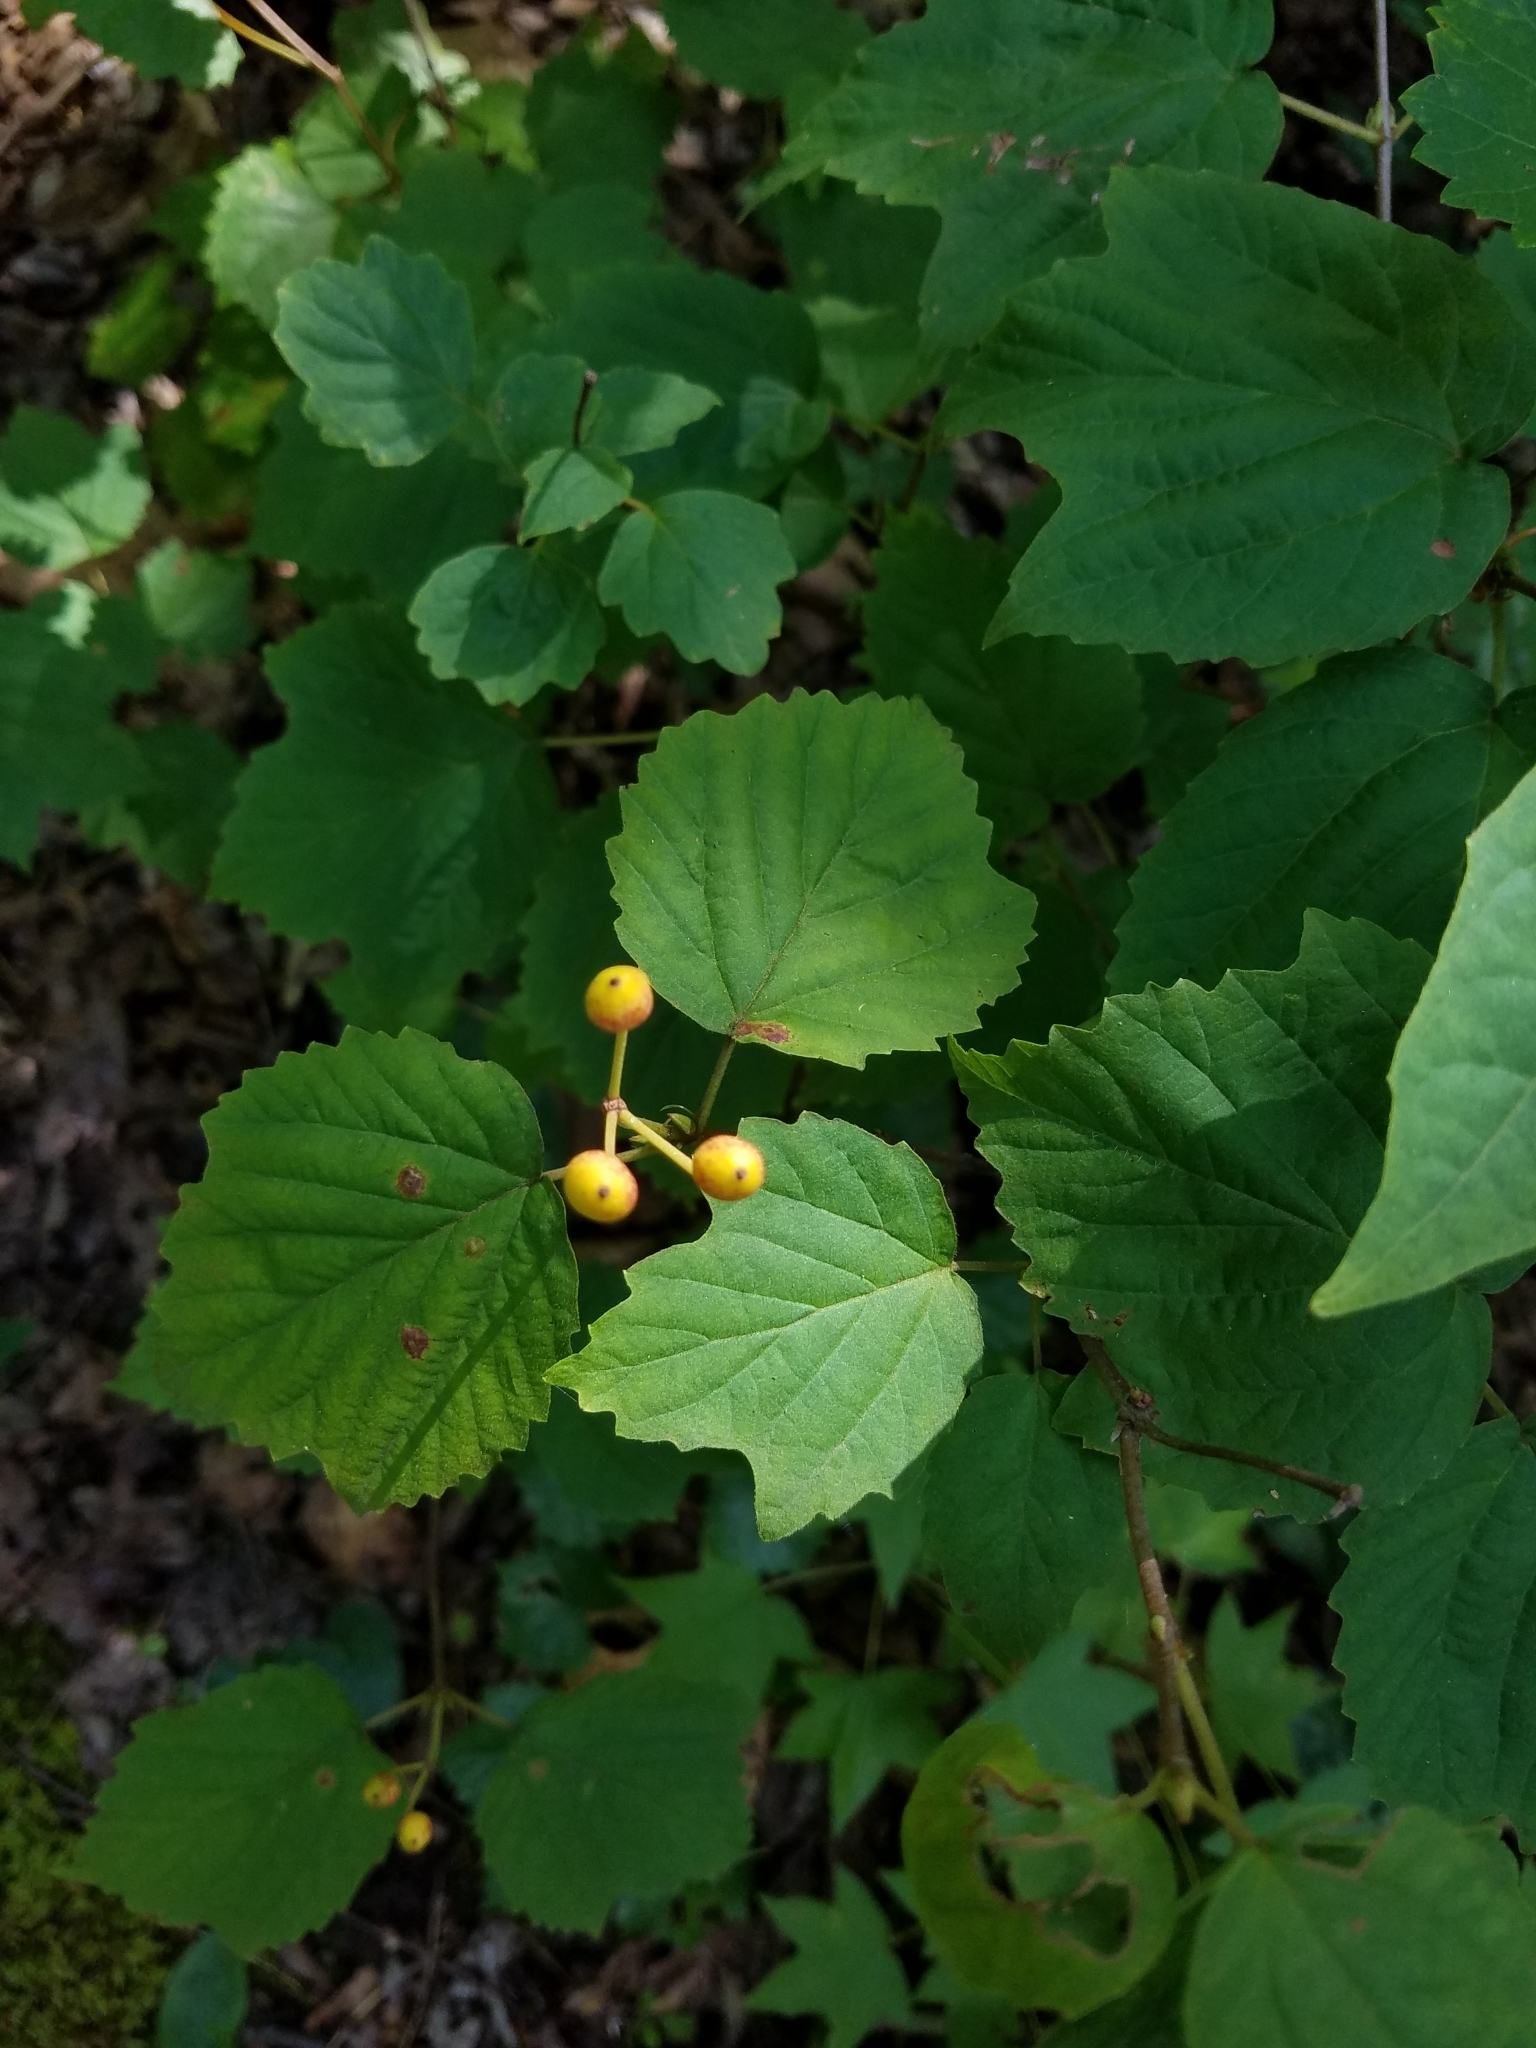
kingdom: Plantae
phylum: Tracheophyta
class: Magnoliopsida
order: Dipsacales
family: Viburnaceae
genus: Viburnum
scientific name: Viburnum acerifolium
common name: Dockmackie
